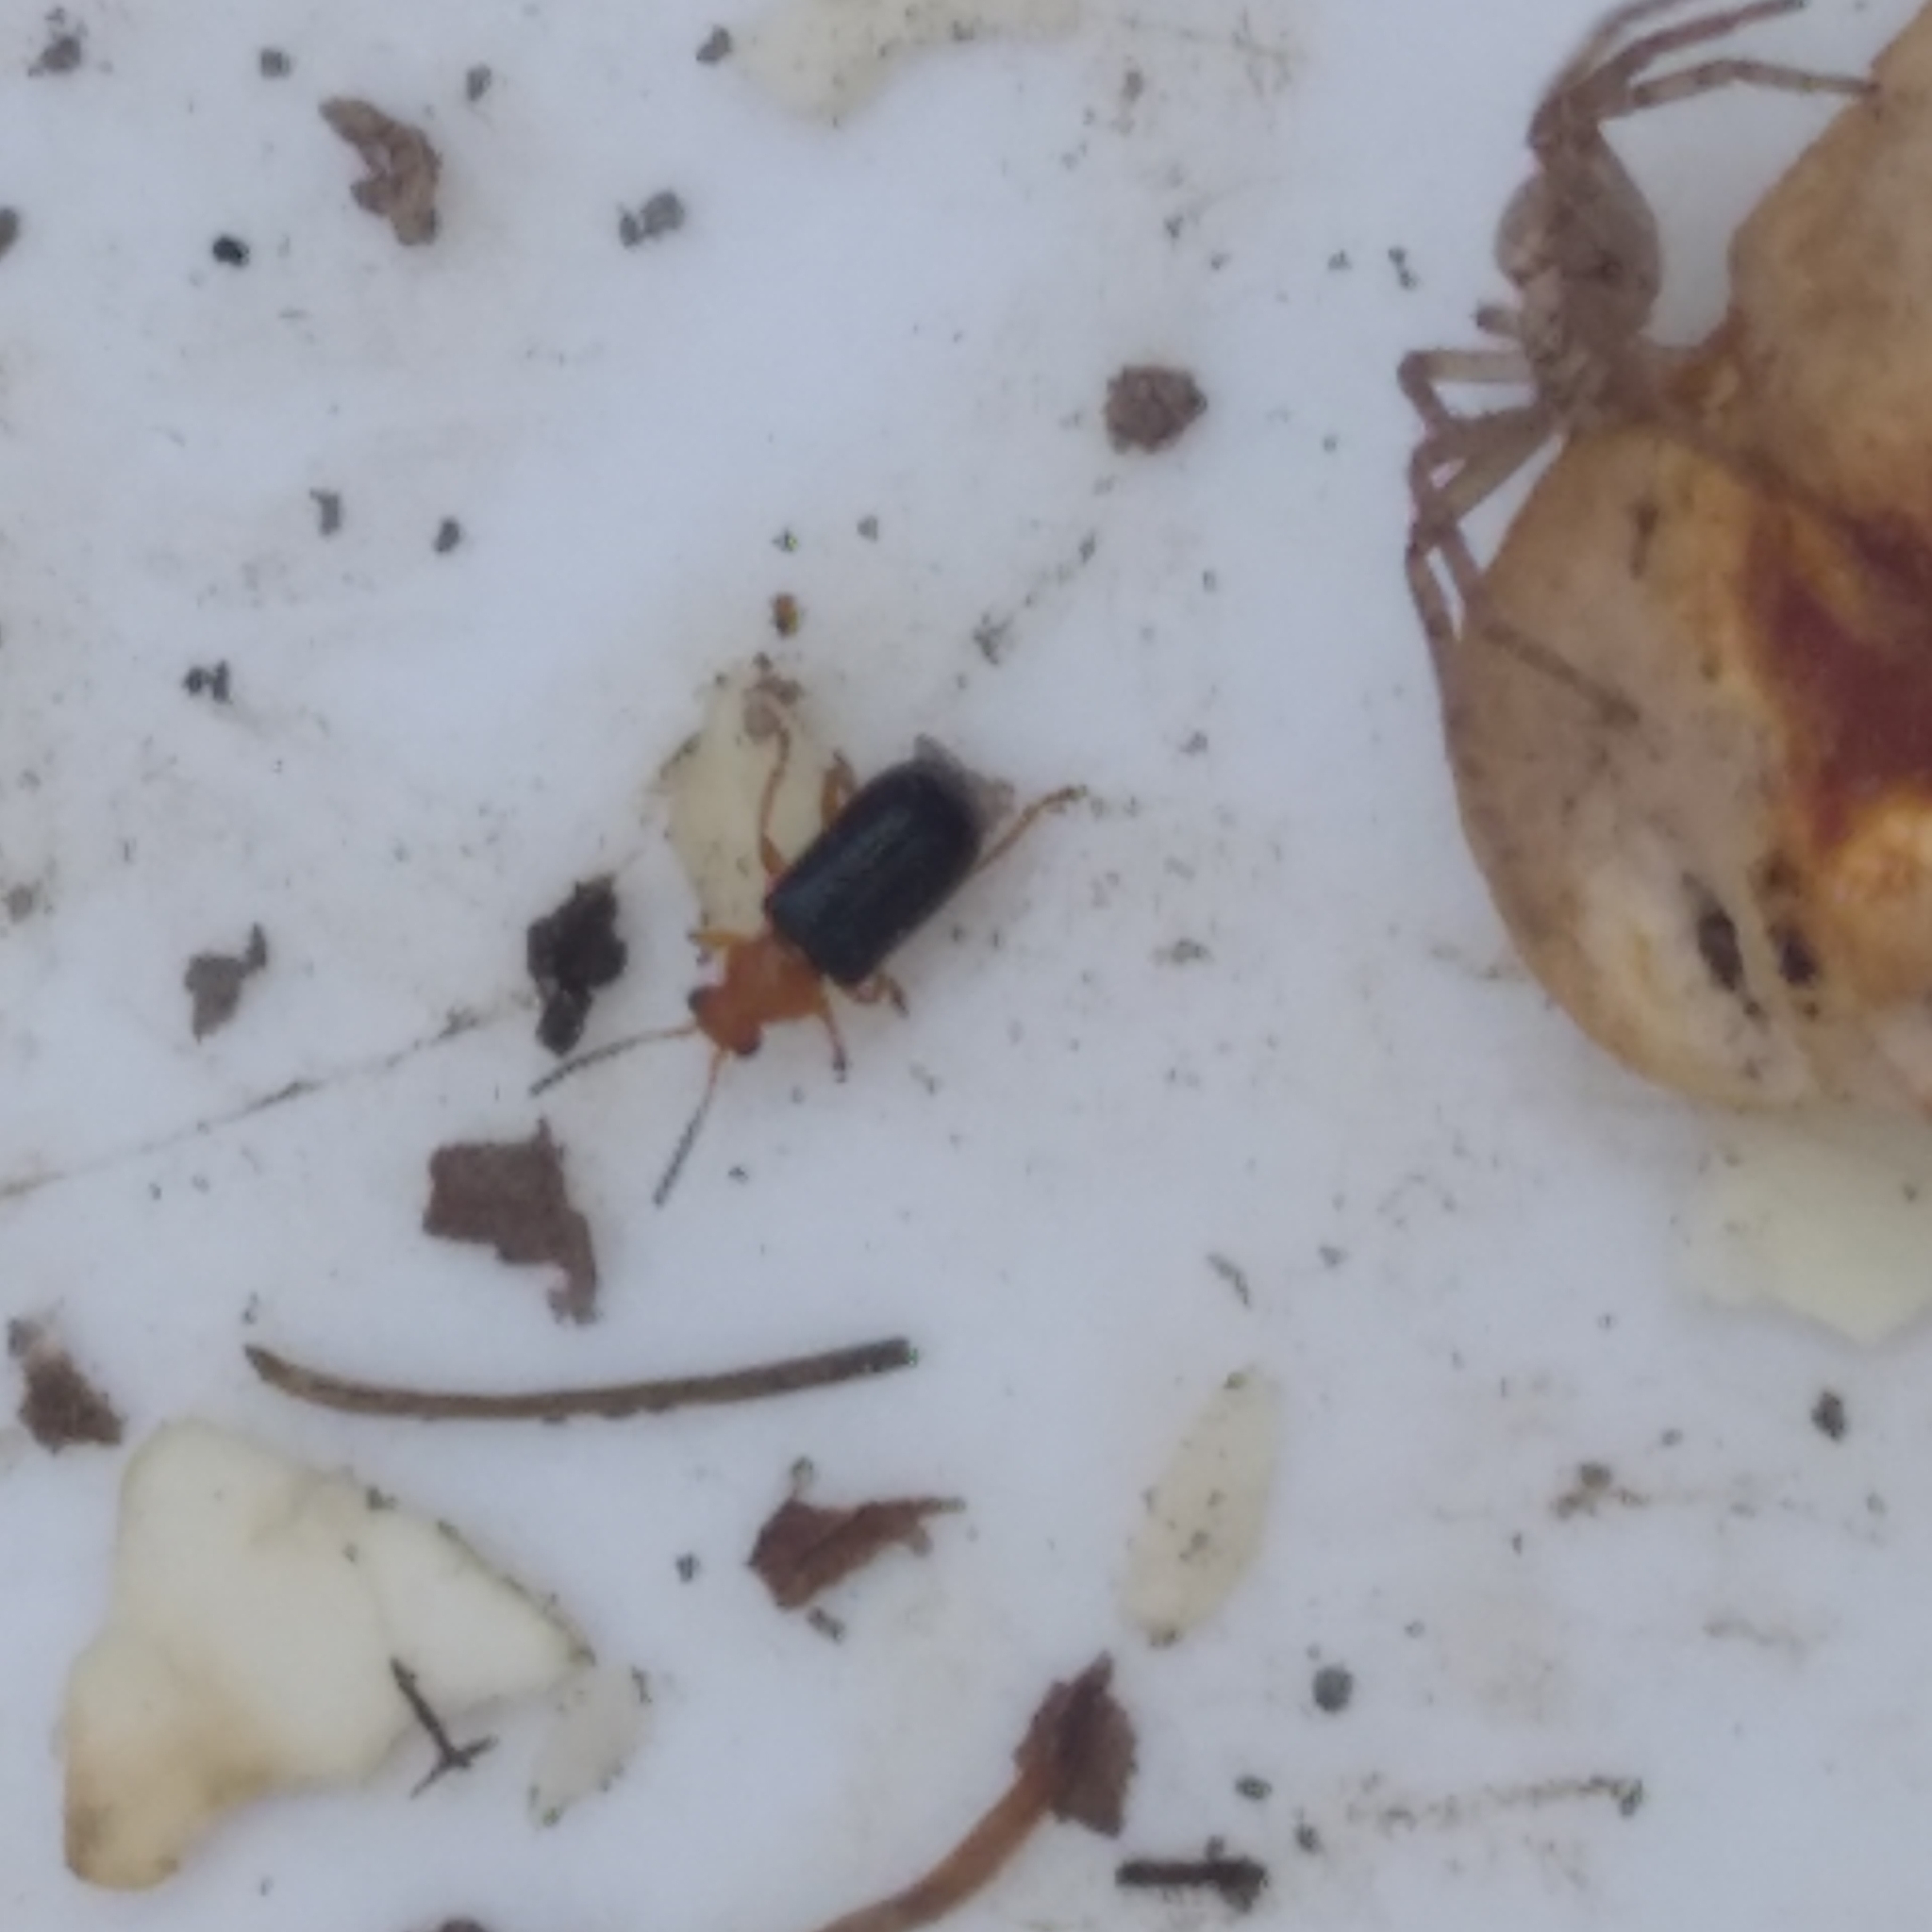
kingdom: Animalia
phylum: Arthropoda
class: Insecta
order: Coleoptera
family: Megalopodidae
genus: Zeugophora
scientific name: Zeugophora
